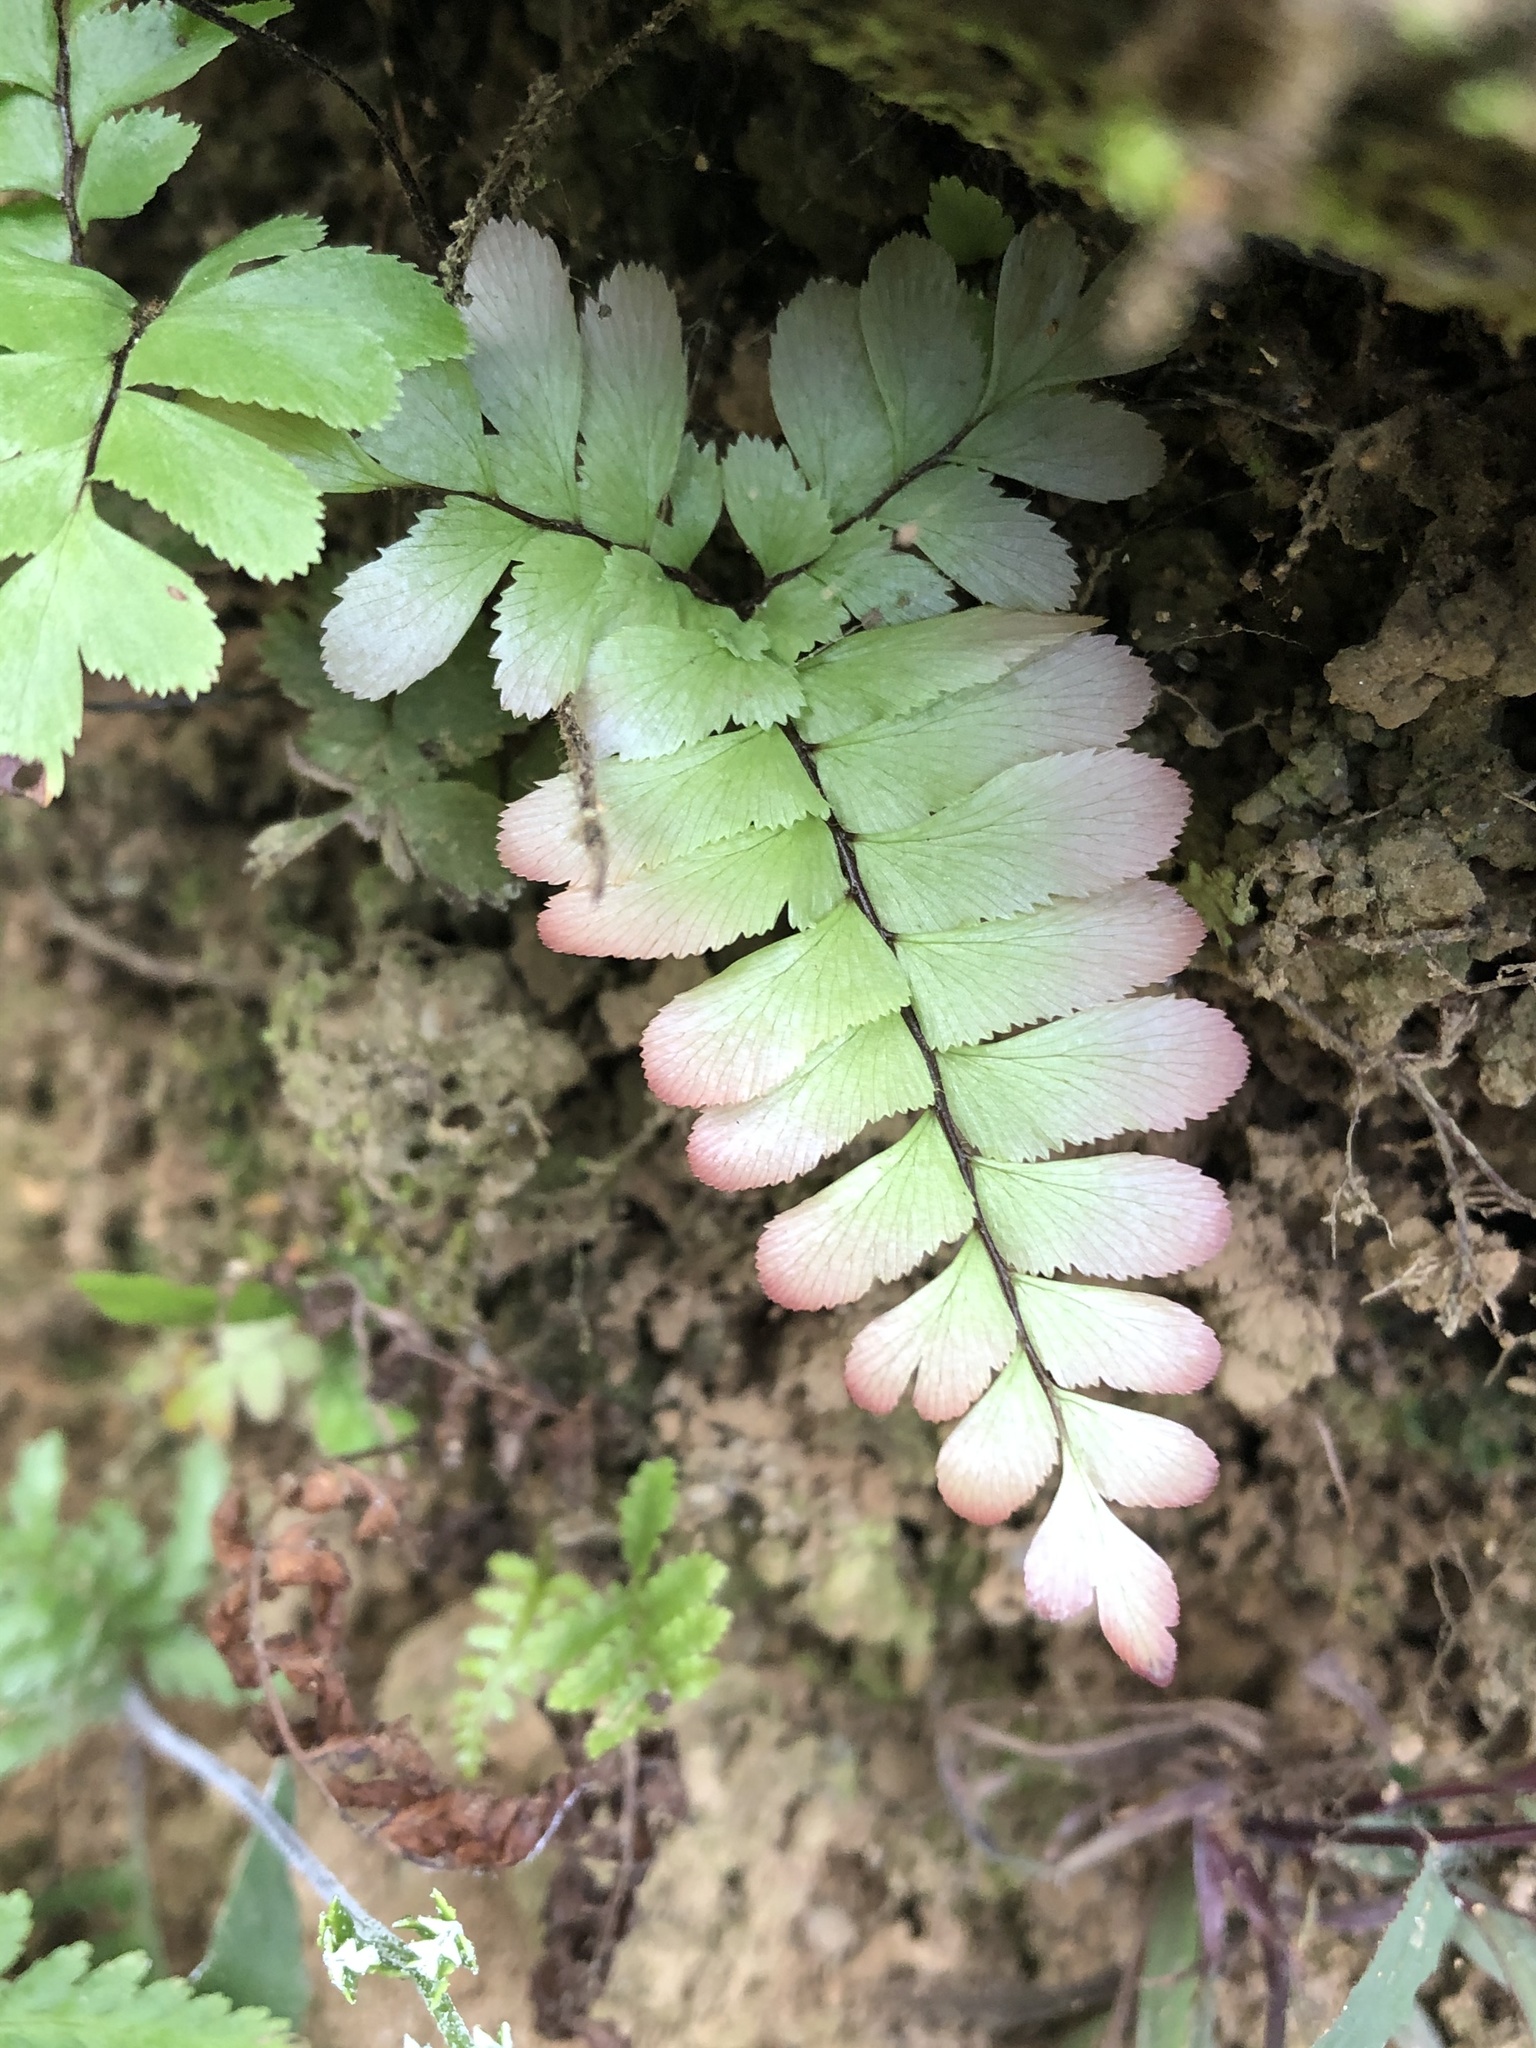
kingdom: Plantae
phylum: Tracheophyta
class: Polypodiopsida
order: Polypodiales
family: Pteridaceae
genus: Adiantum
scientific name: Adiantum tomentosum
